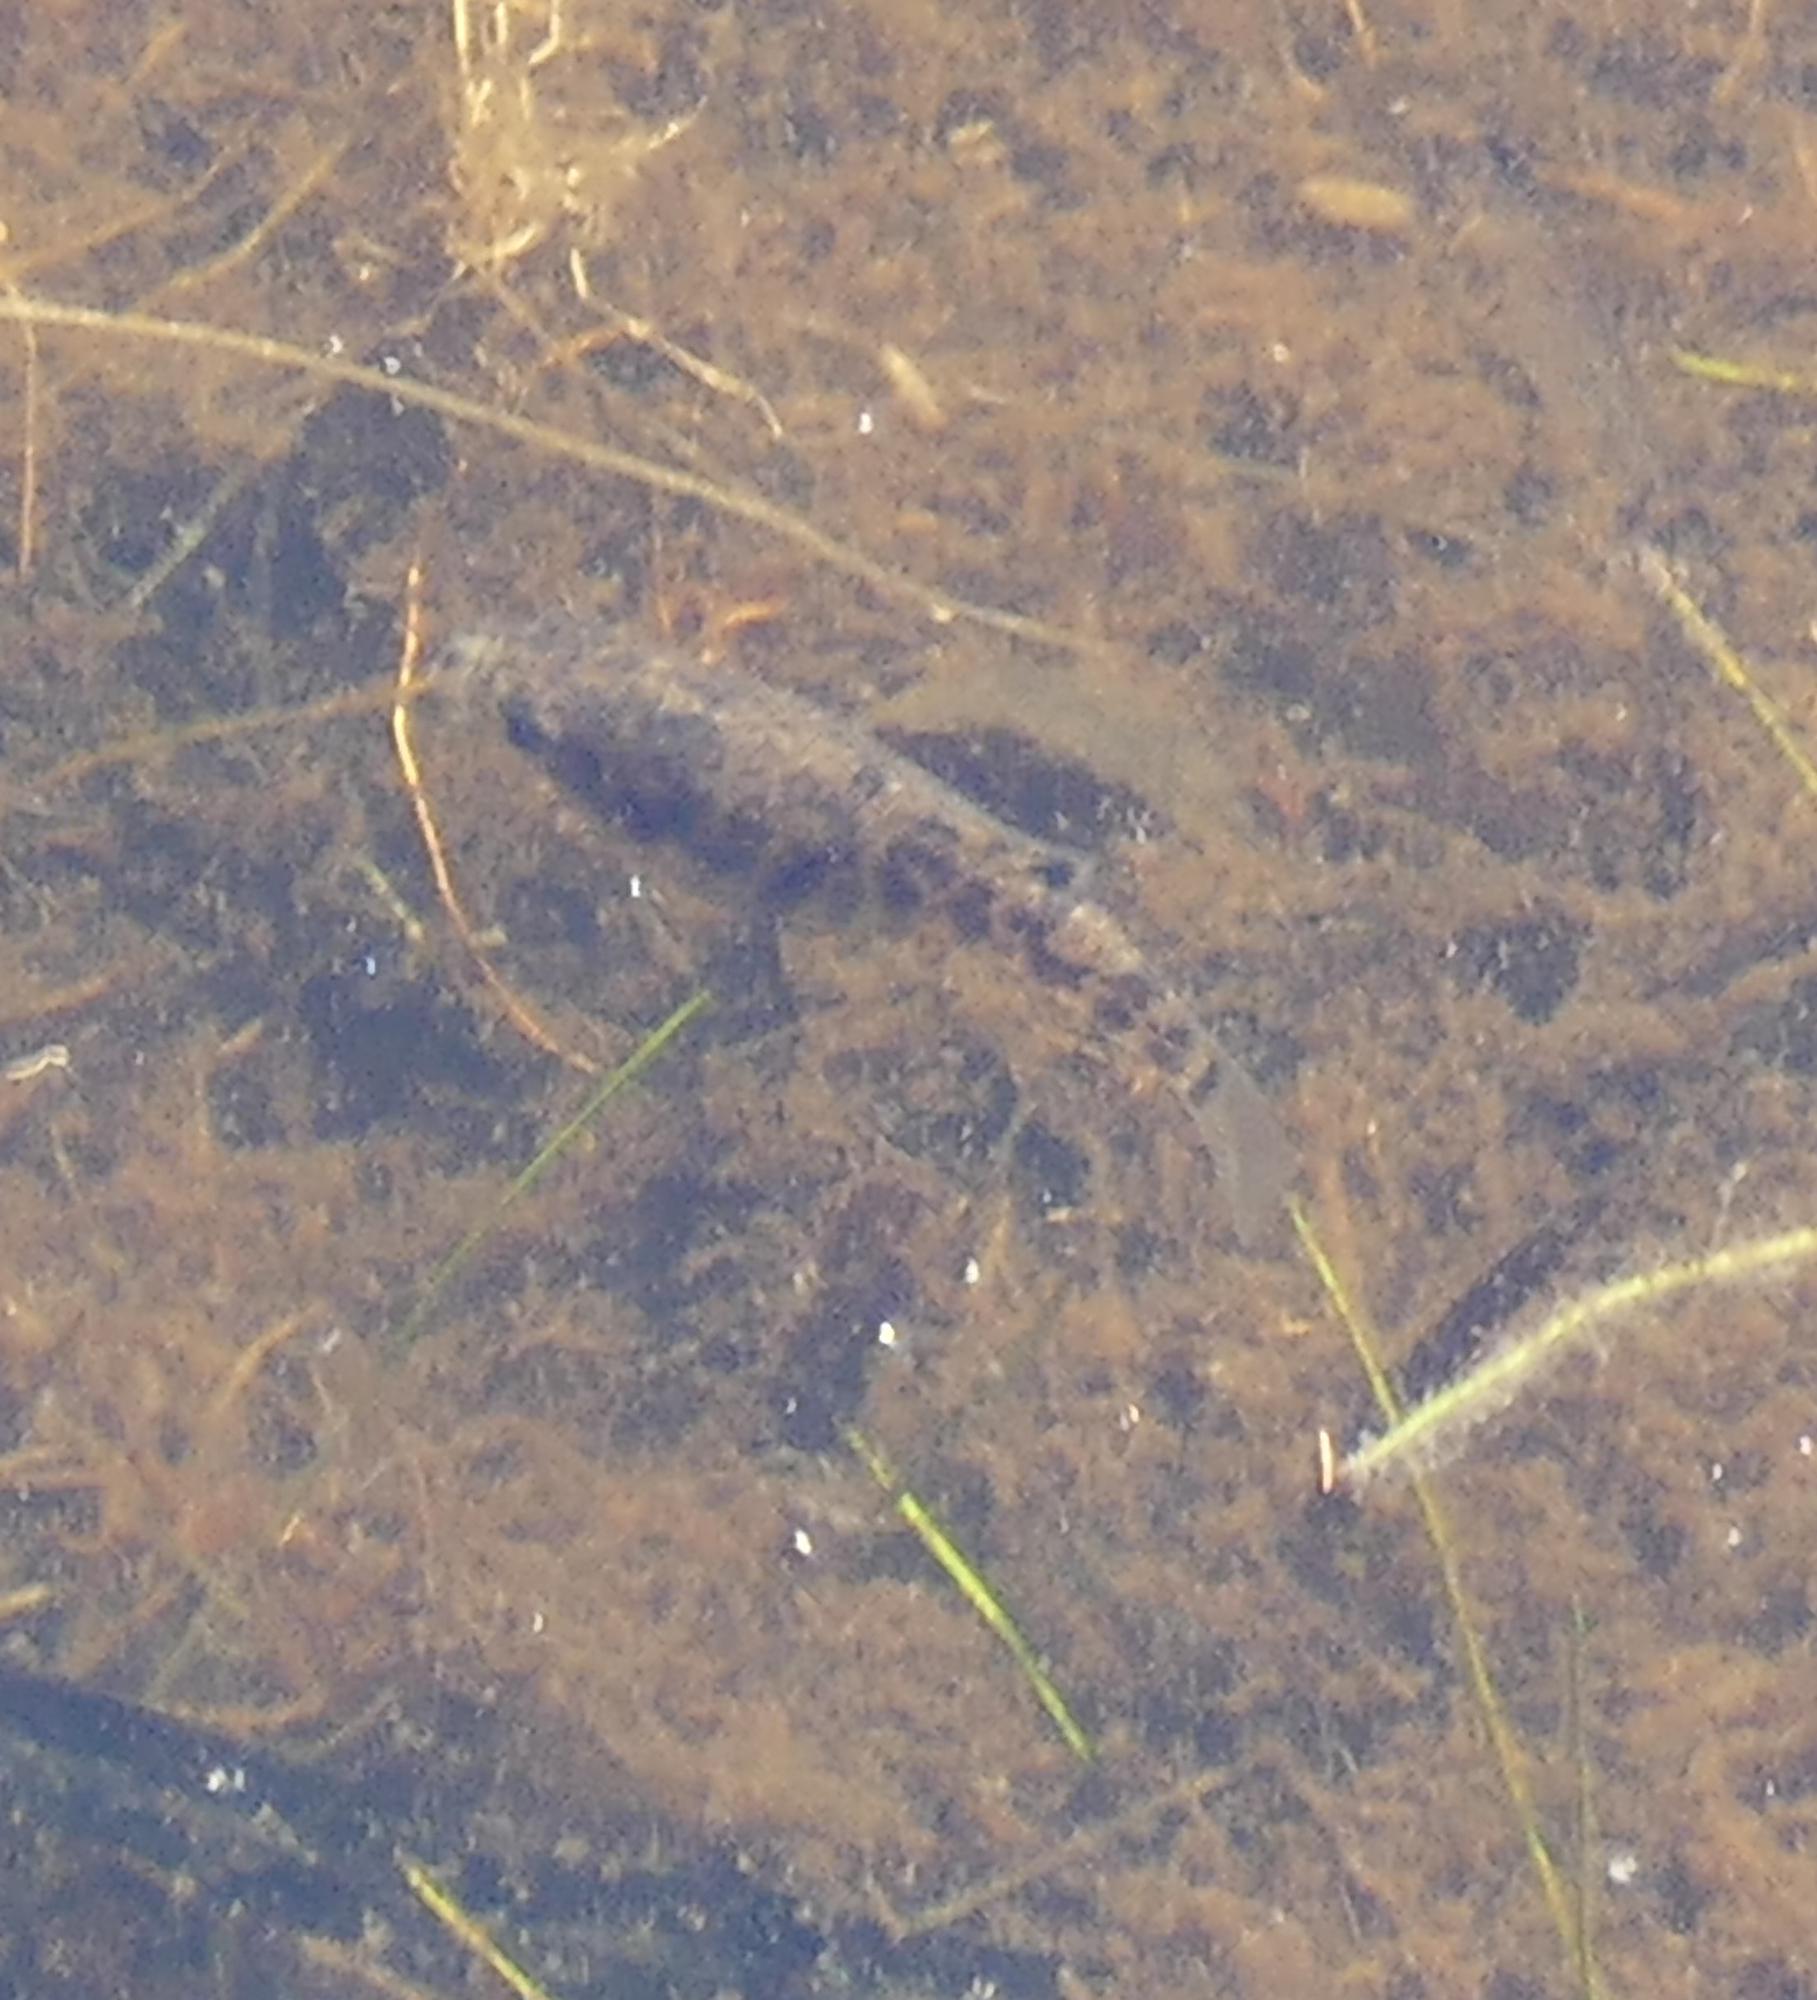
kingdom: Animalia
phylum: Chordata
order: Cyprinodontiformes
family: Cyprinodontidae
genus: Cyprinodon
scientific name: Cyprinodon variegatus
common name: Sheepshead minnow
